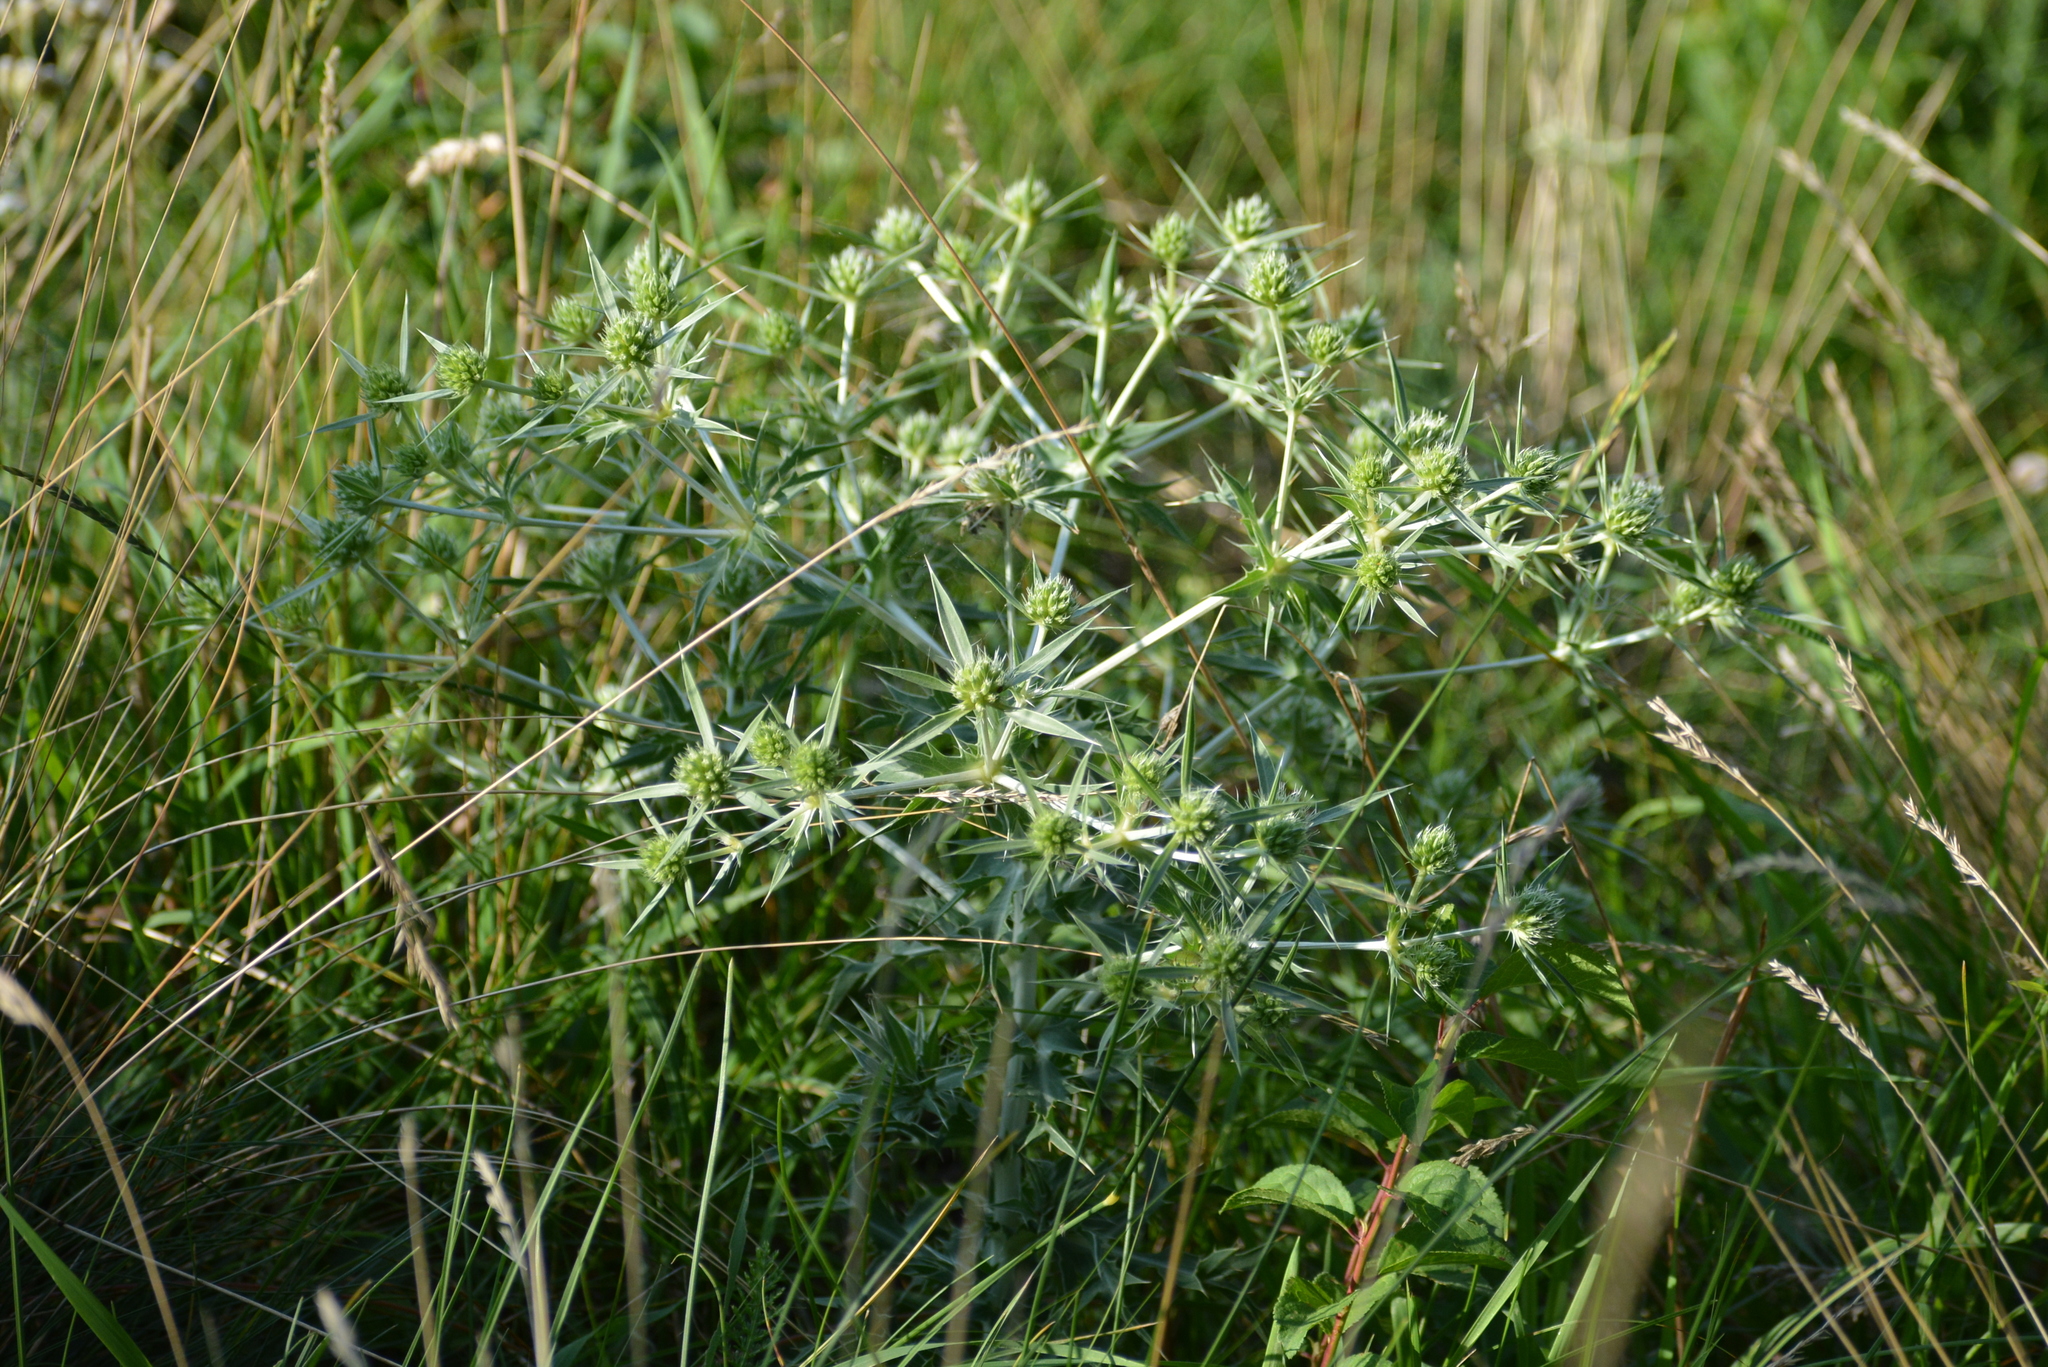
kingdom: Plantae
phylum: Tracheophyta
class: Magnoliopsida
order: Apiales
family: Apiaceae
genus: Eryngium
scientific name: Eryngium campestre
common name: Field eryngo
